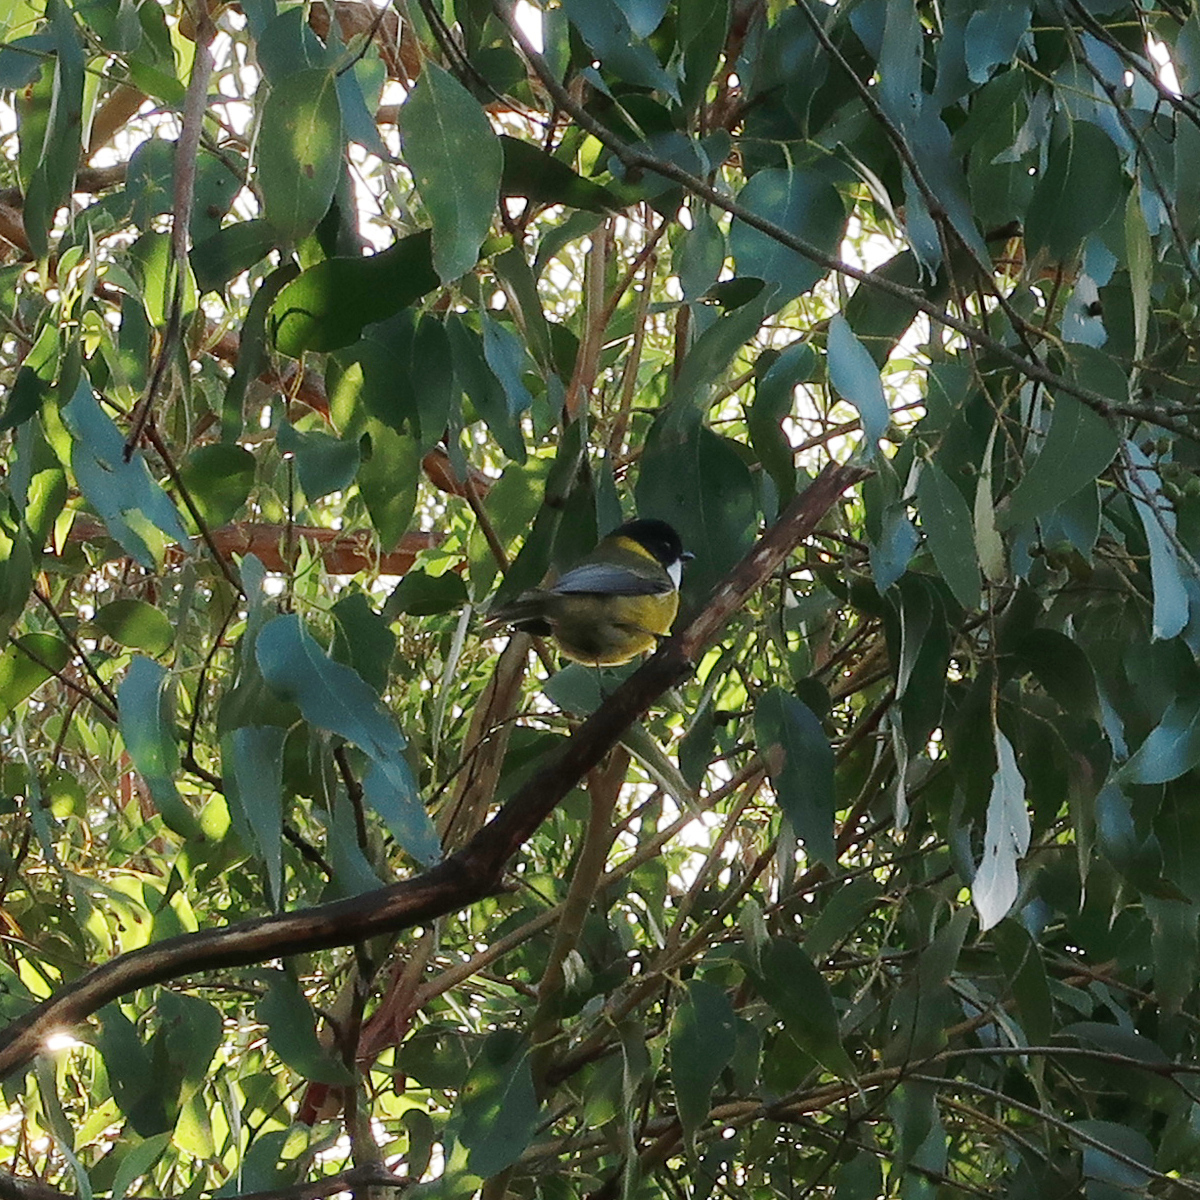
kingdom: Animalia
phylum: Chordata
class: Aves
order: Passeriformes
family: Pachycephalidae
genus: Pachycephala
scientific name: Pachycephala pectoralis
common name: Australian golden whistler
